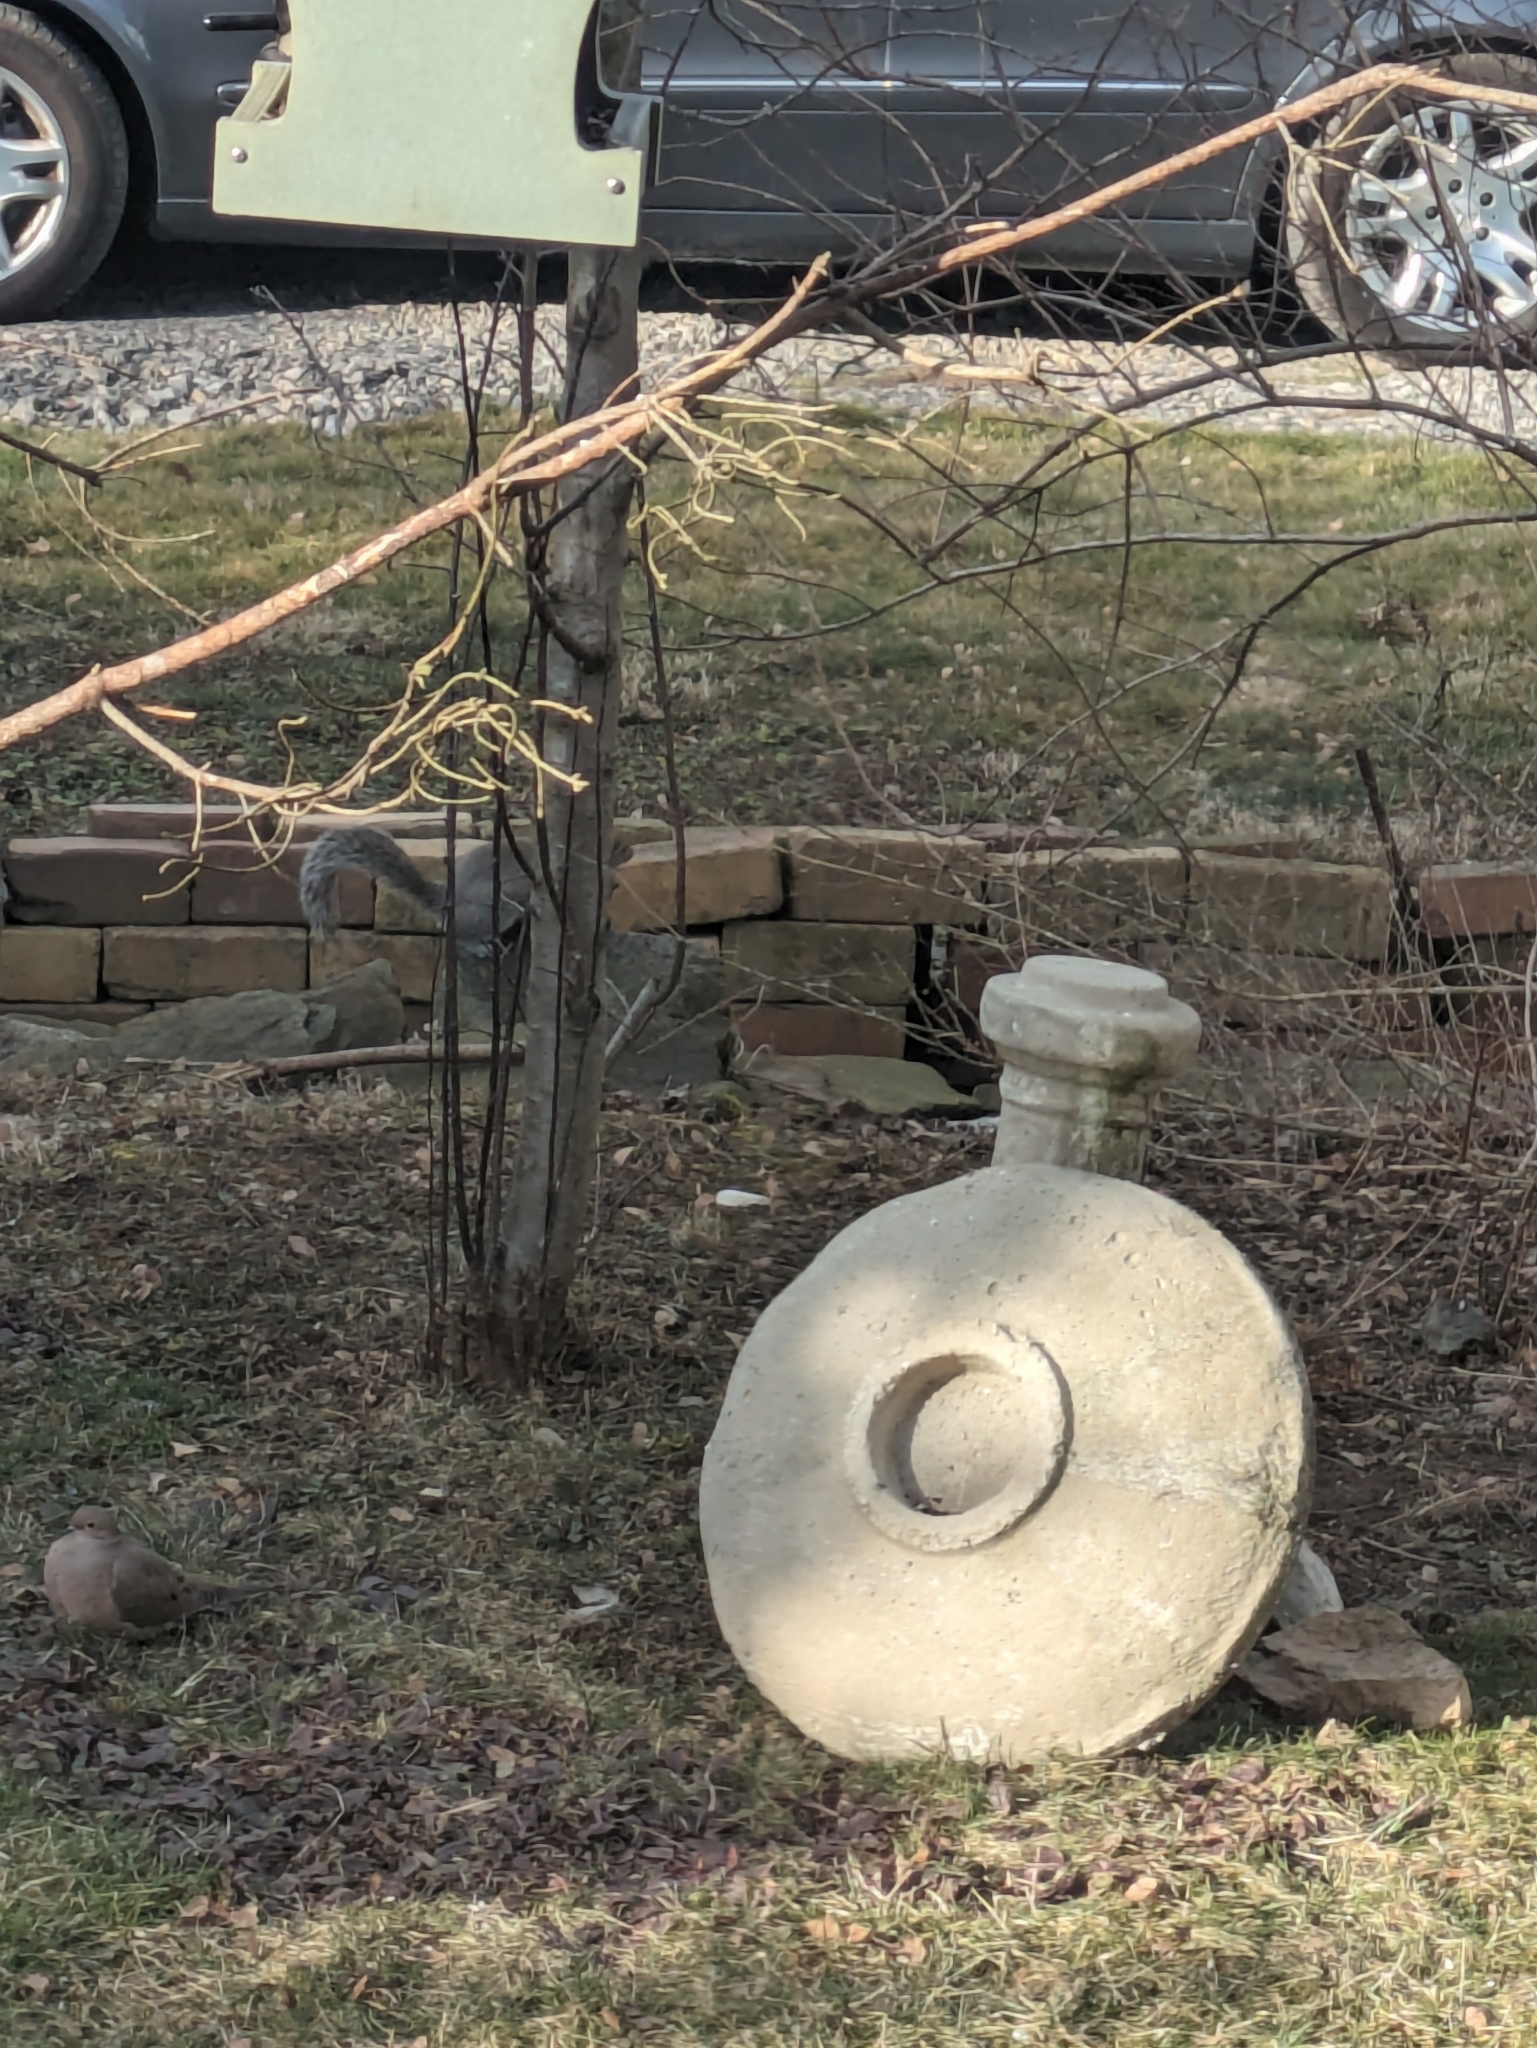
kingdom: Animalia
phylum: Chordata
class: Mammalia
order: Rodentia
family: Sciuridae
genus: Sciurus
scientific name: Sciurus carolinensis
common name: Eastern gray squirrel
